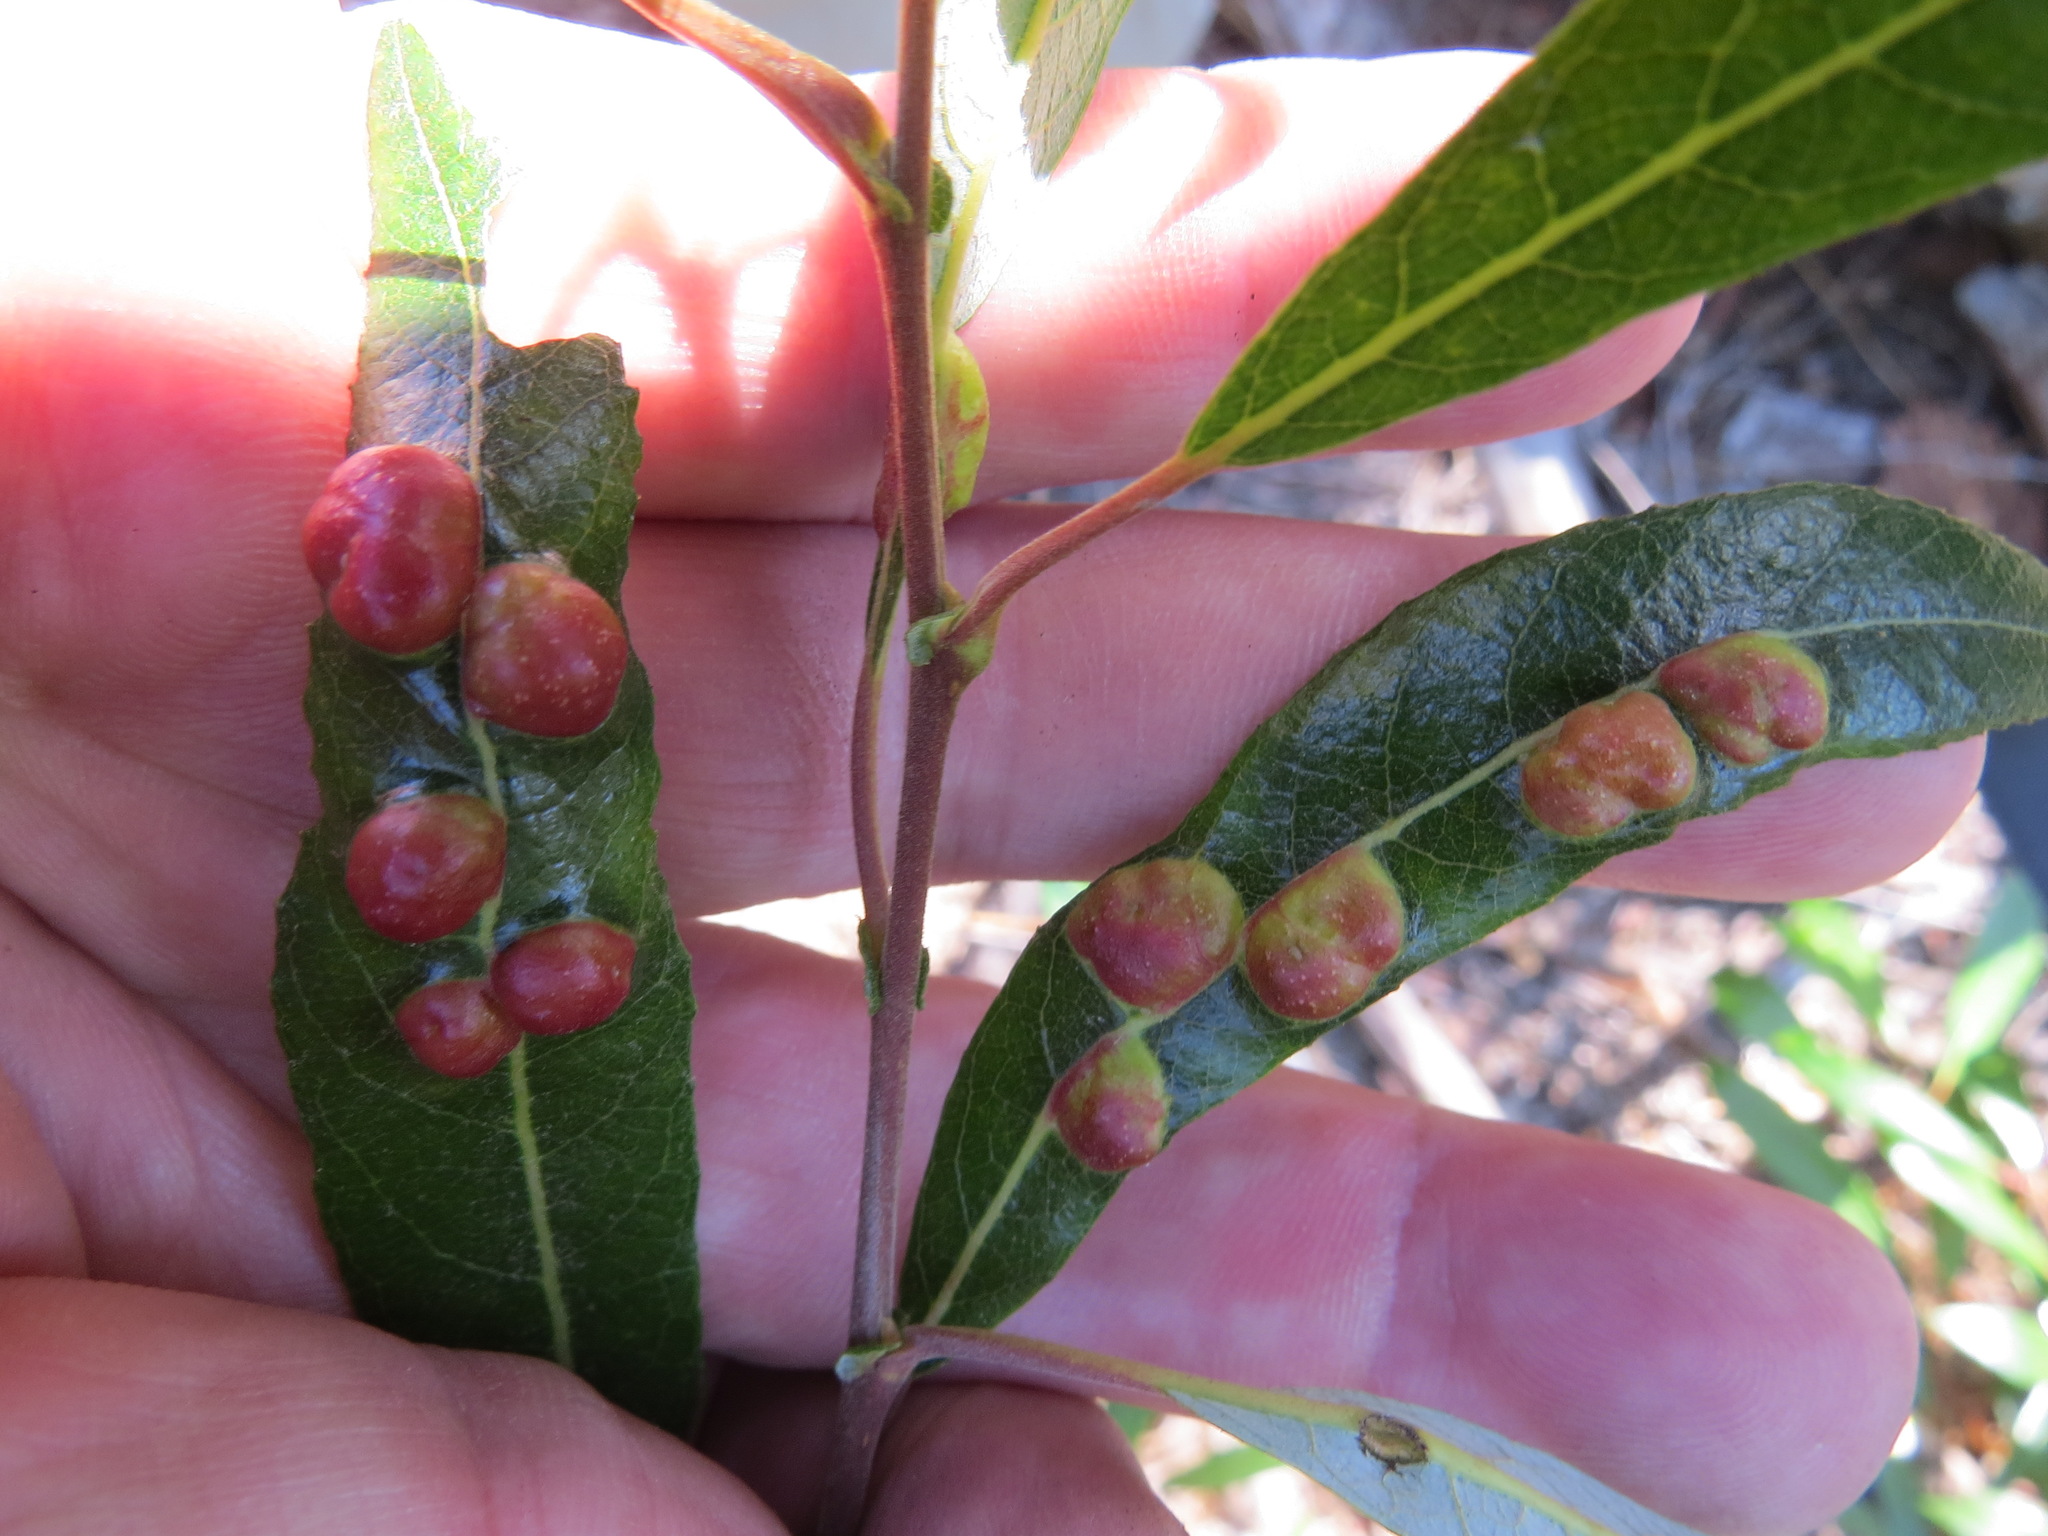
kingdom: Animalia
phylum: Arthropoda
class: Insecta
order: Hymenoptera
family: Tenthredinidae
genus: Euura
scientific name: Euura
